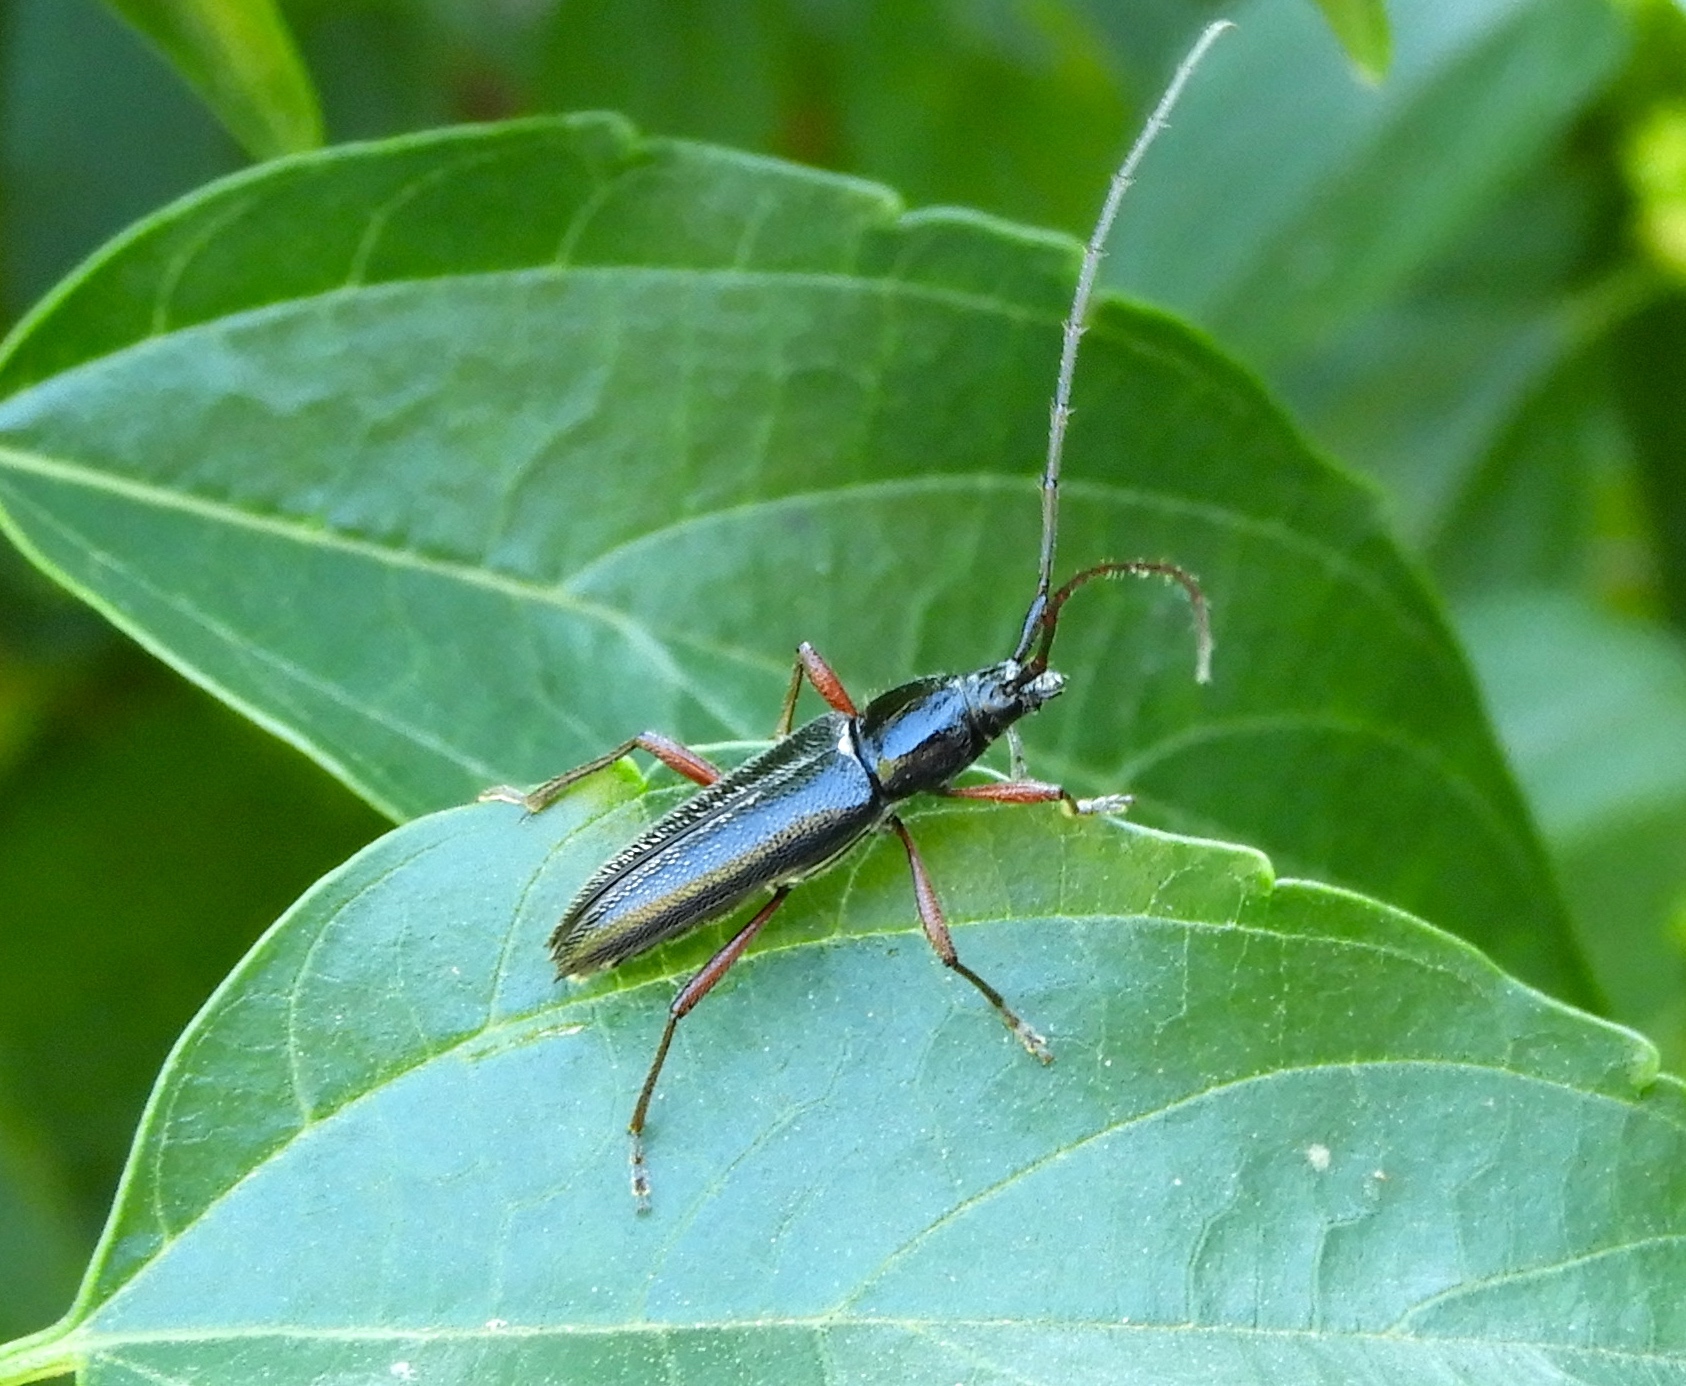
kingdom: Animalia
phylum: Arthropoda
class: Insecta
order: Coleoptera
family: Cerambycidae
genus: Stenosphenus
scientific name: Stenosphenus
